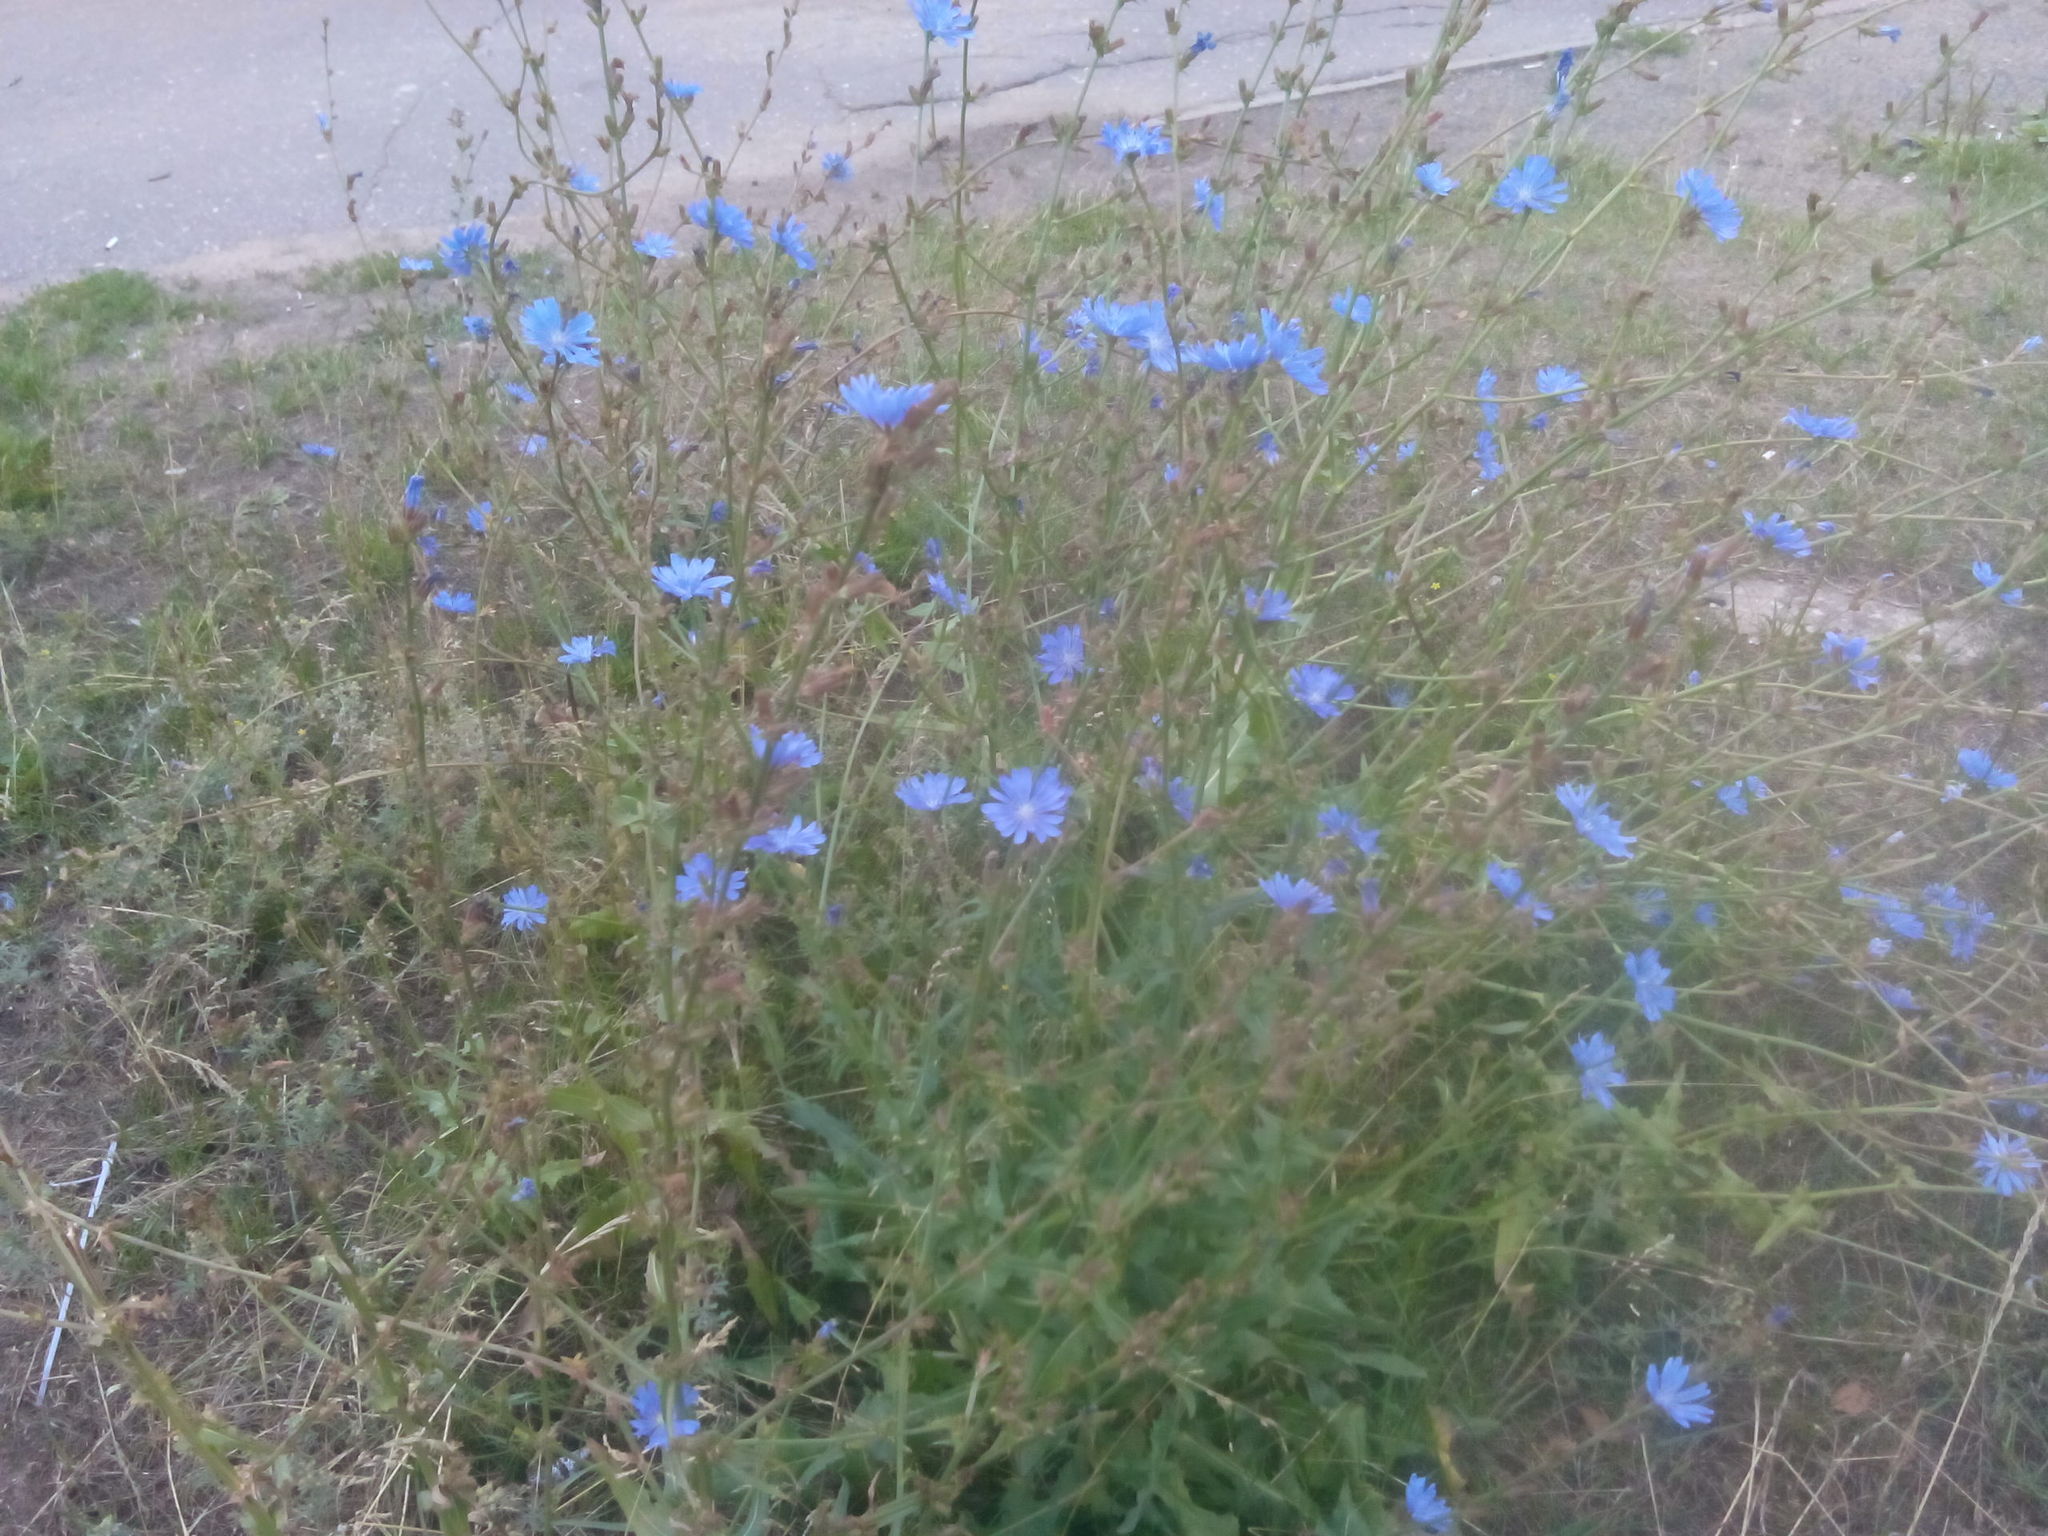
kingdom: Plantae
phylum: Tracheophyta
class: Magnoliopsida
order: Asterales
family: Asteraceae
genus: Cichorium
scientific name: Cichorium intybus
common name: Chicory
